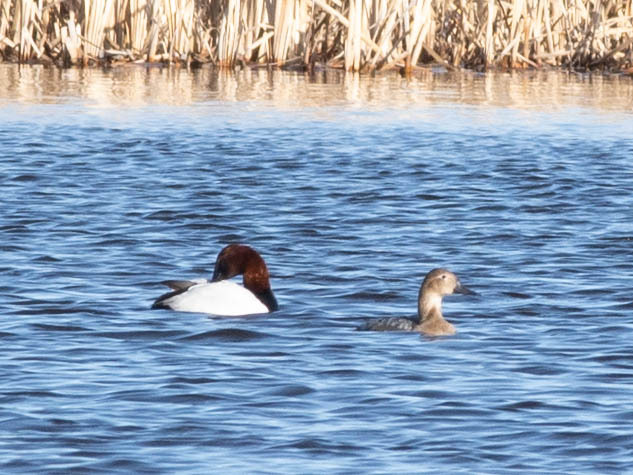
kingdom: Animalia
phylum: Chordata
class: Aves
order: Anseriformes
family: Anatidae
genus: Aythya
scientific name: Aythya valisineria
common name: Canvasback
